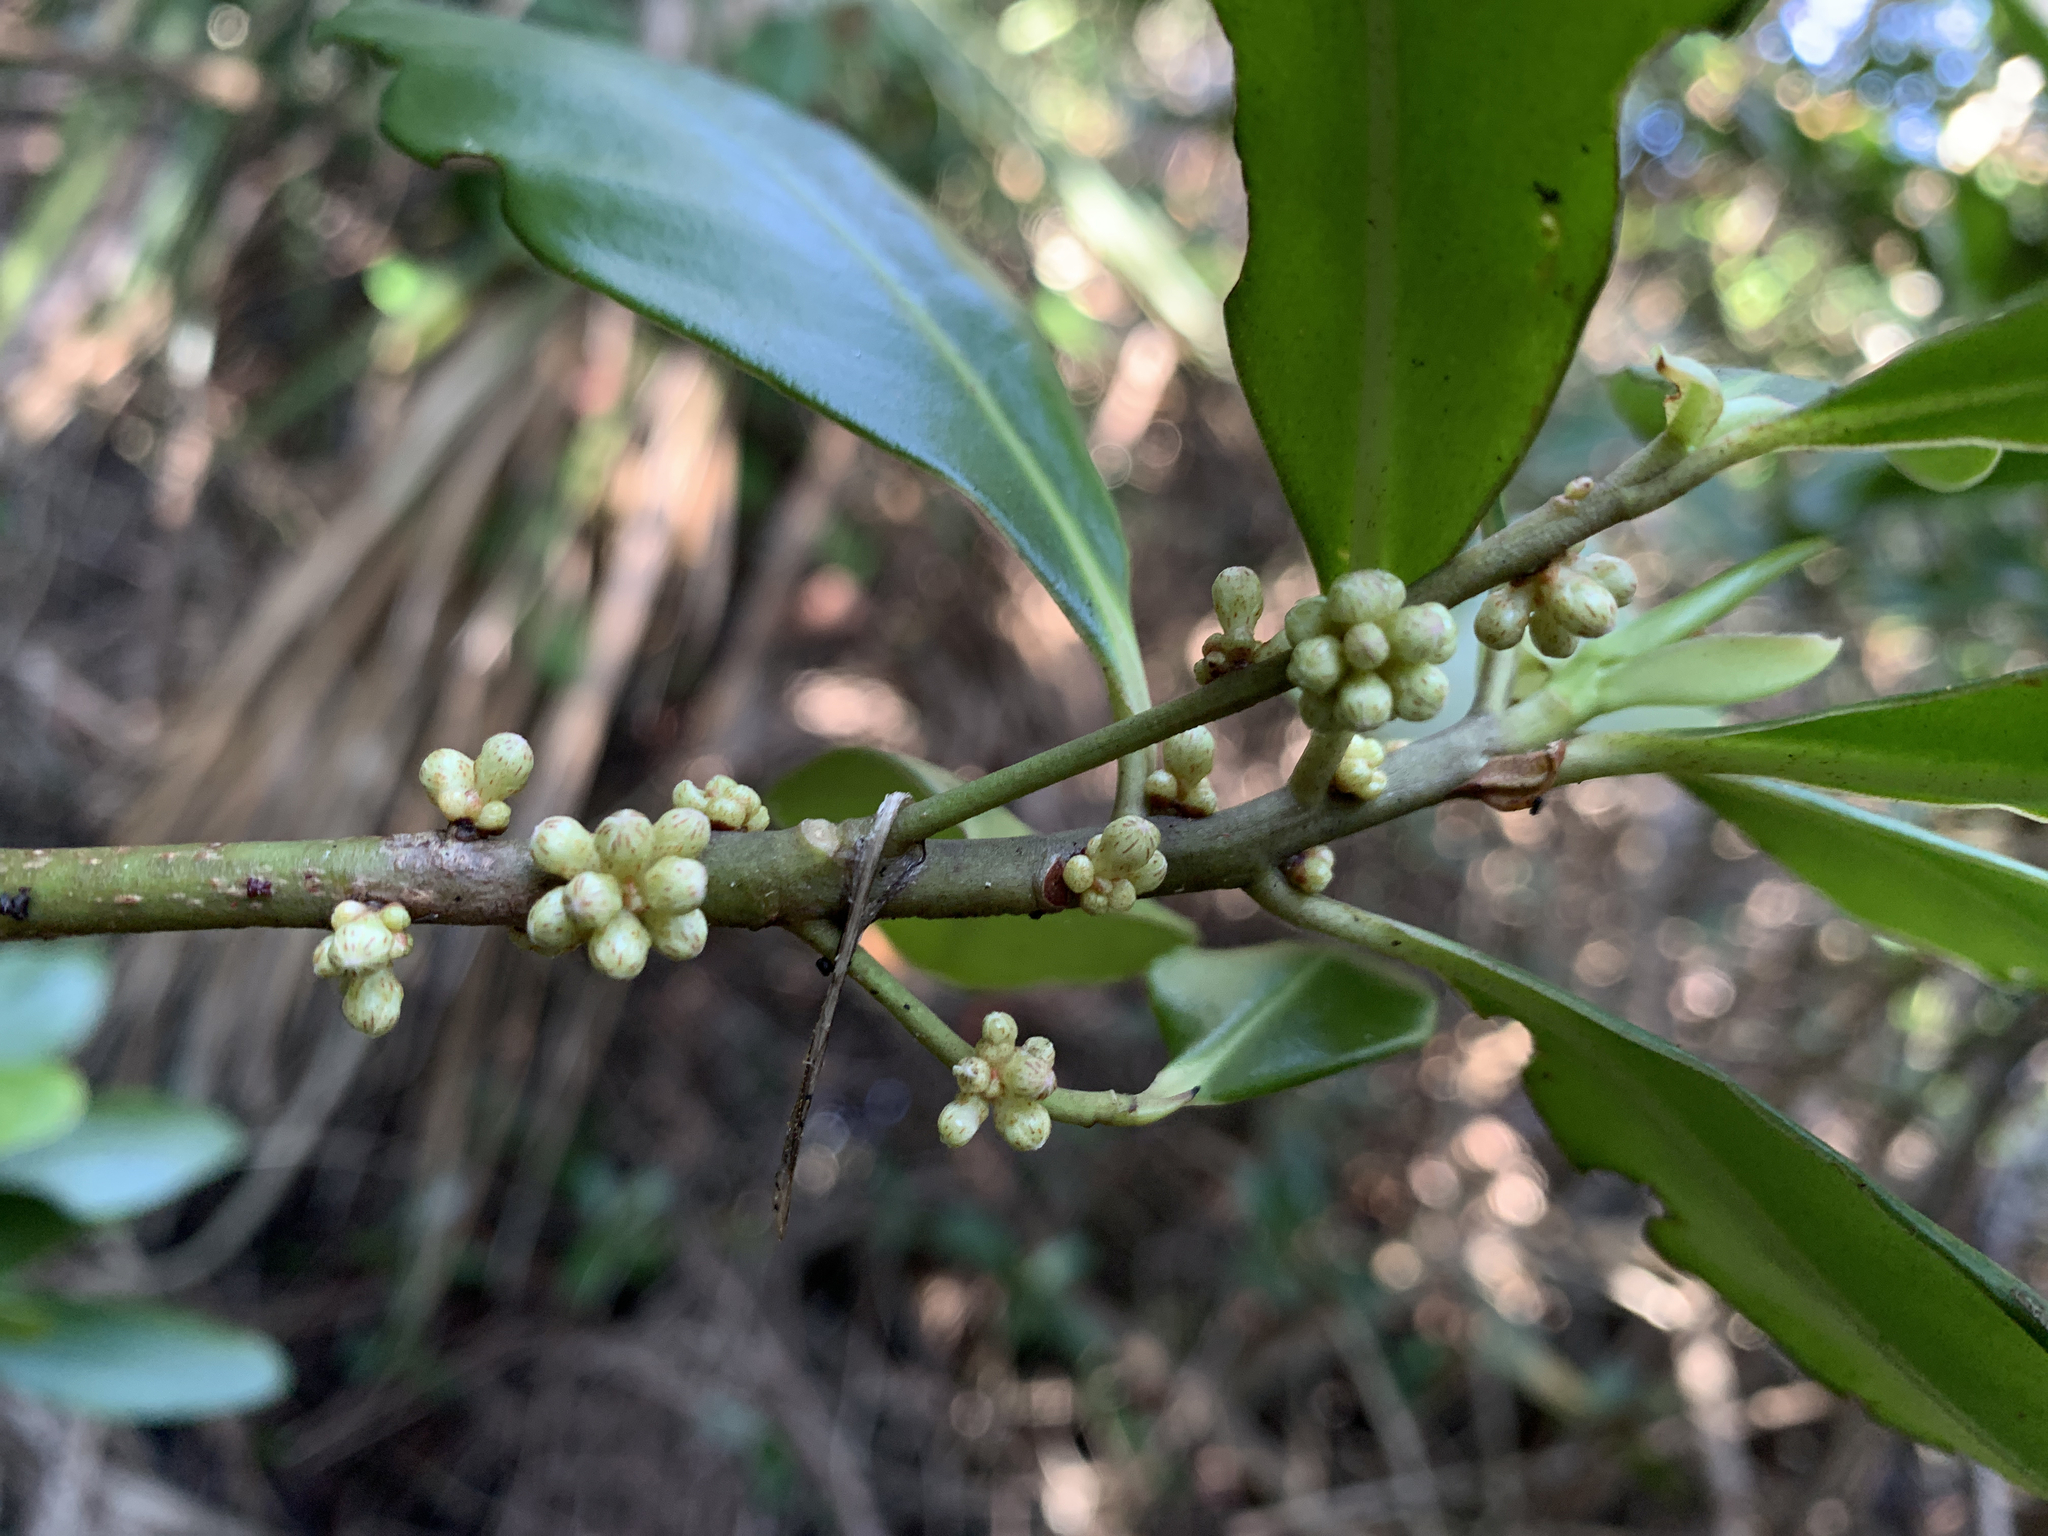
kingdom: Plantae
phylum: Tracheophyta
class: Magnoliopsida
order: Ericales
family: Primulaceae
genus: Myrsine
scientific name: Myrsine floridana
